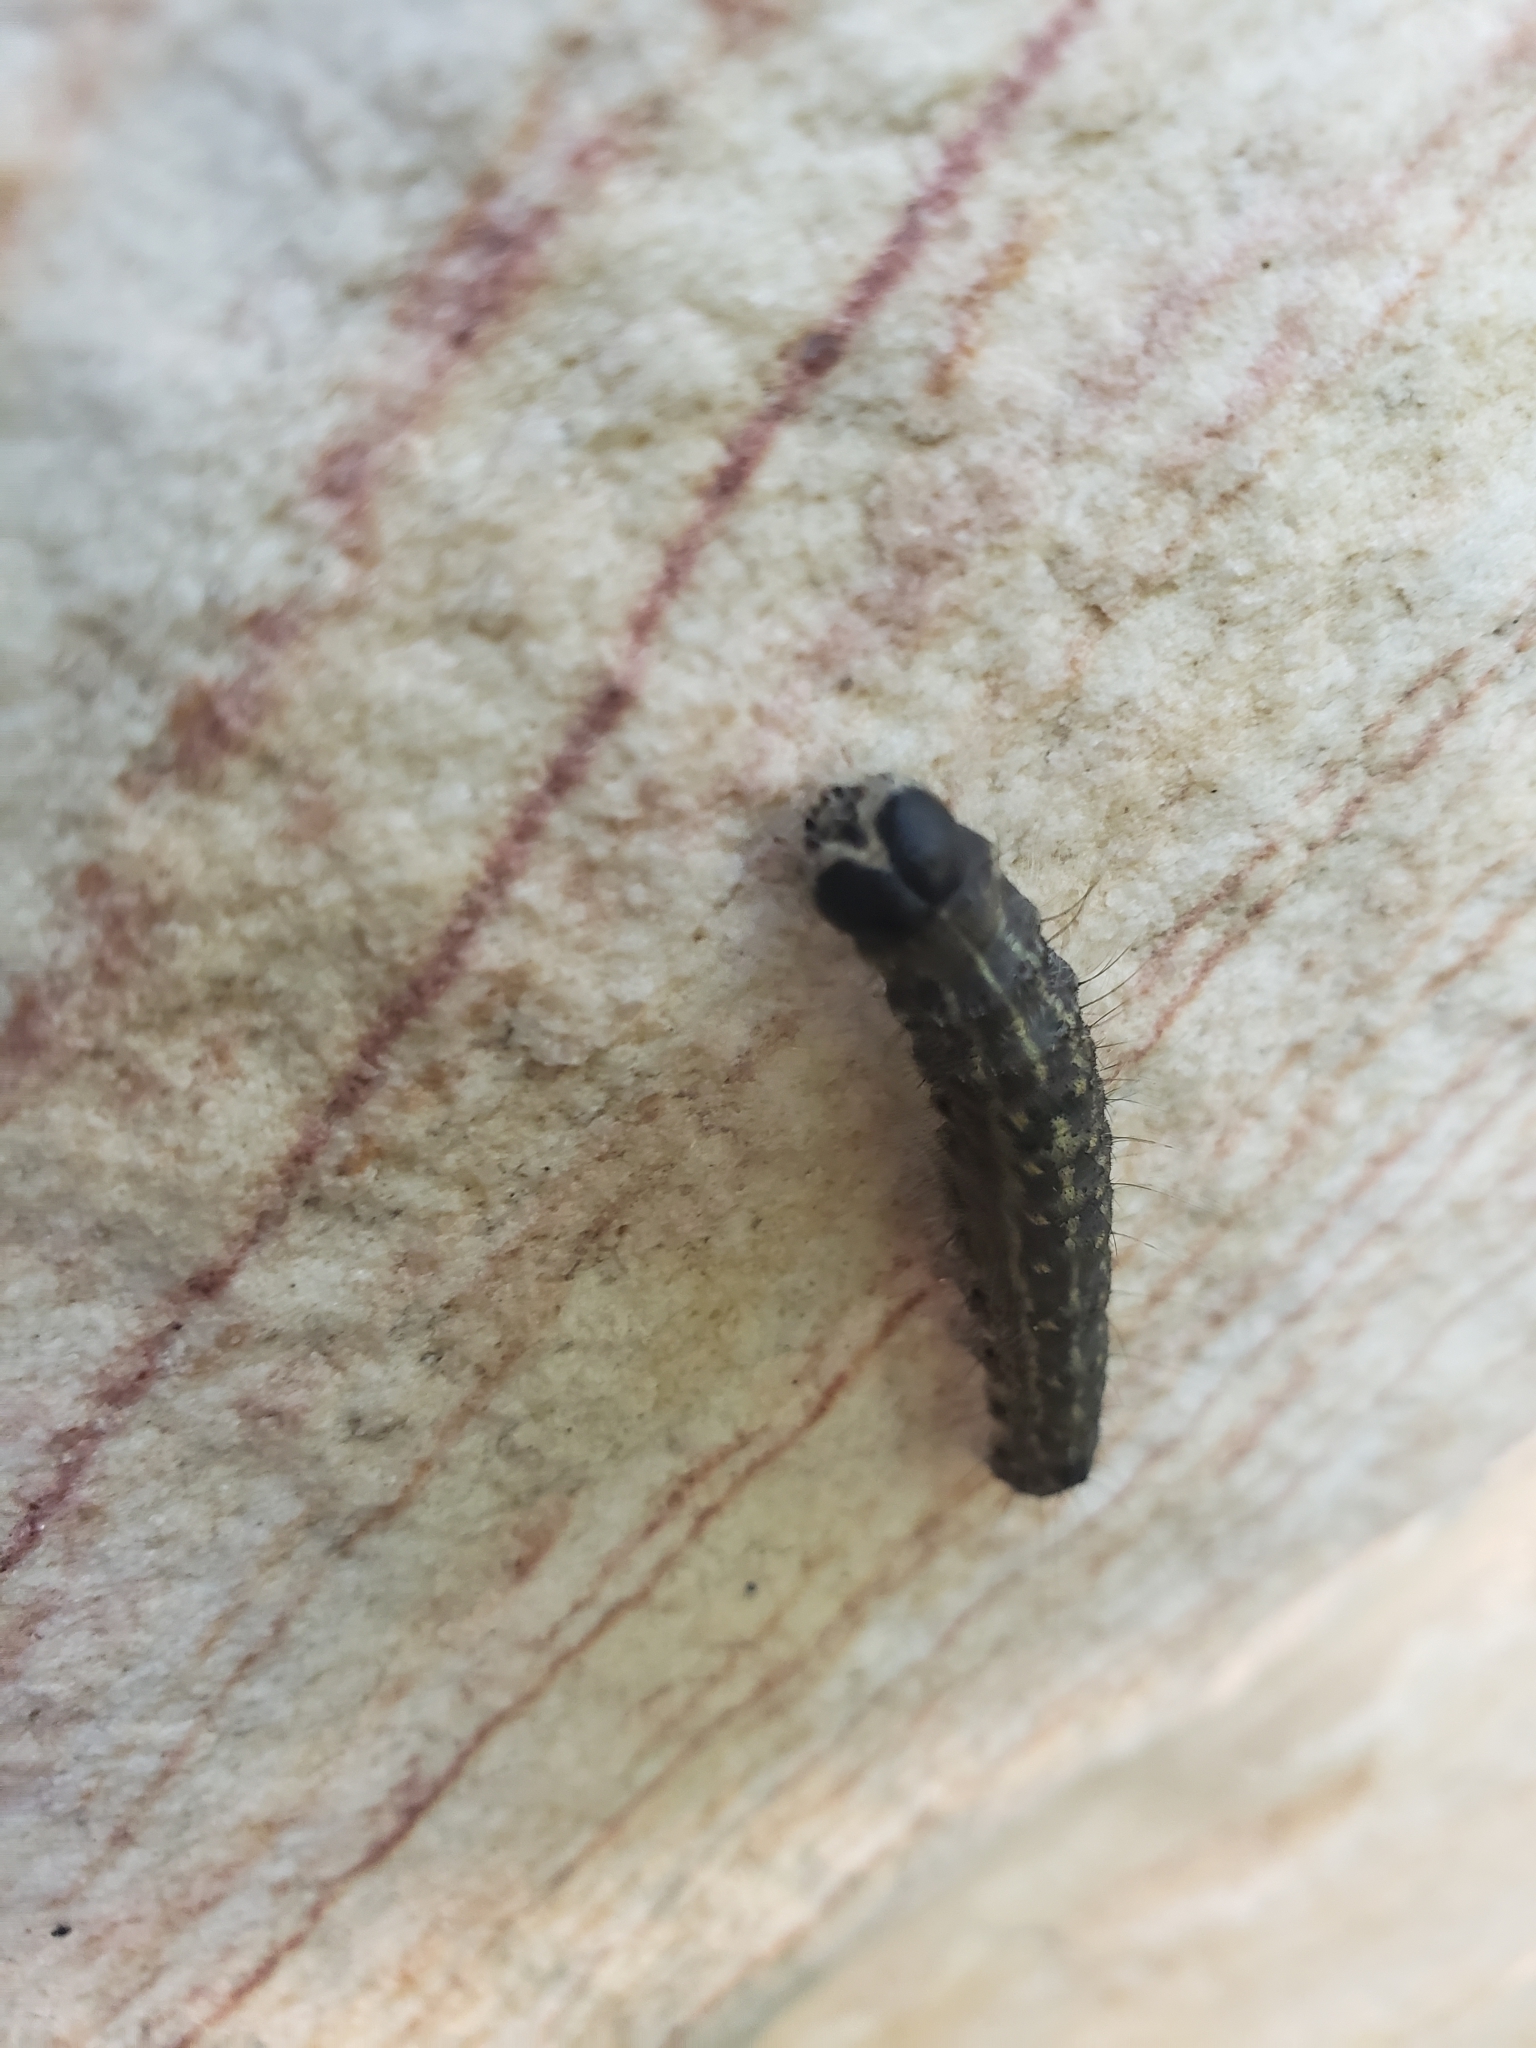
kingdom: Animalia
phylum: Arthropoda
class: Insecta
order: Lepidoptera
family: Noctuidae
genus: Acronicta
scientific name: Acronicta lobeliae
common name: Greater oak dagger
